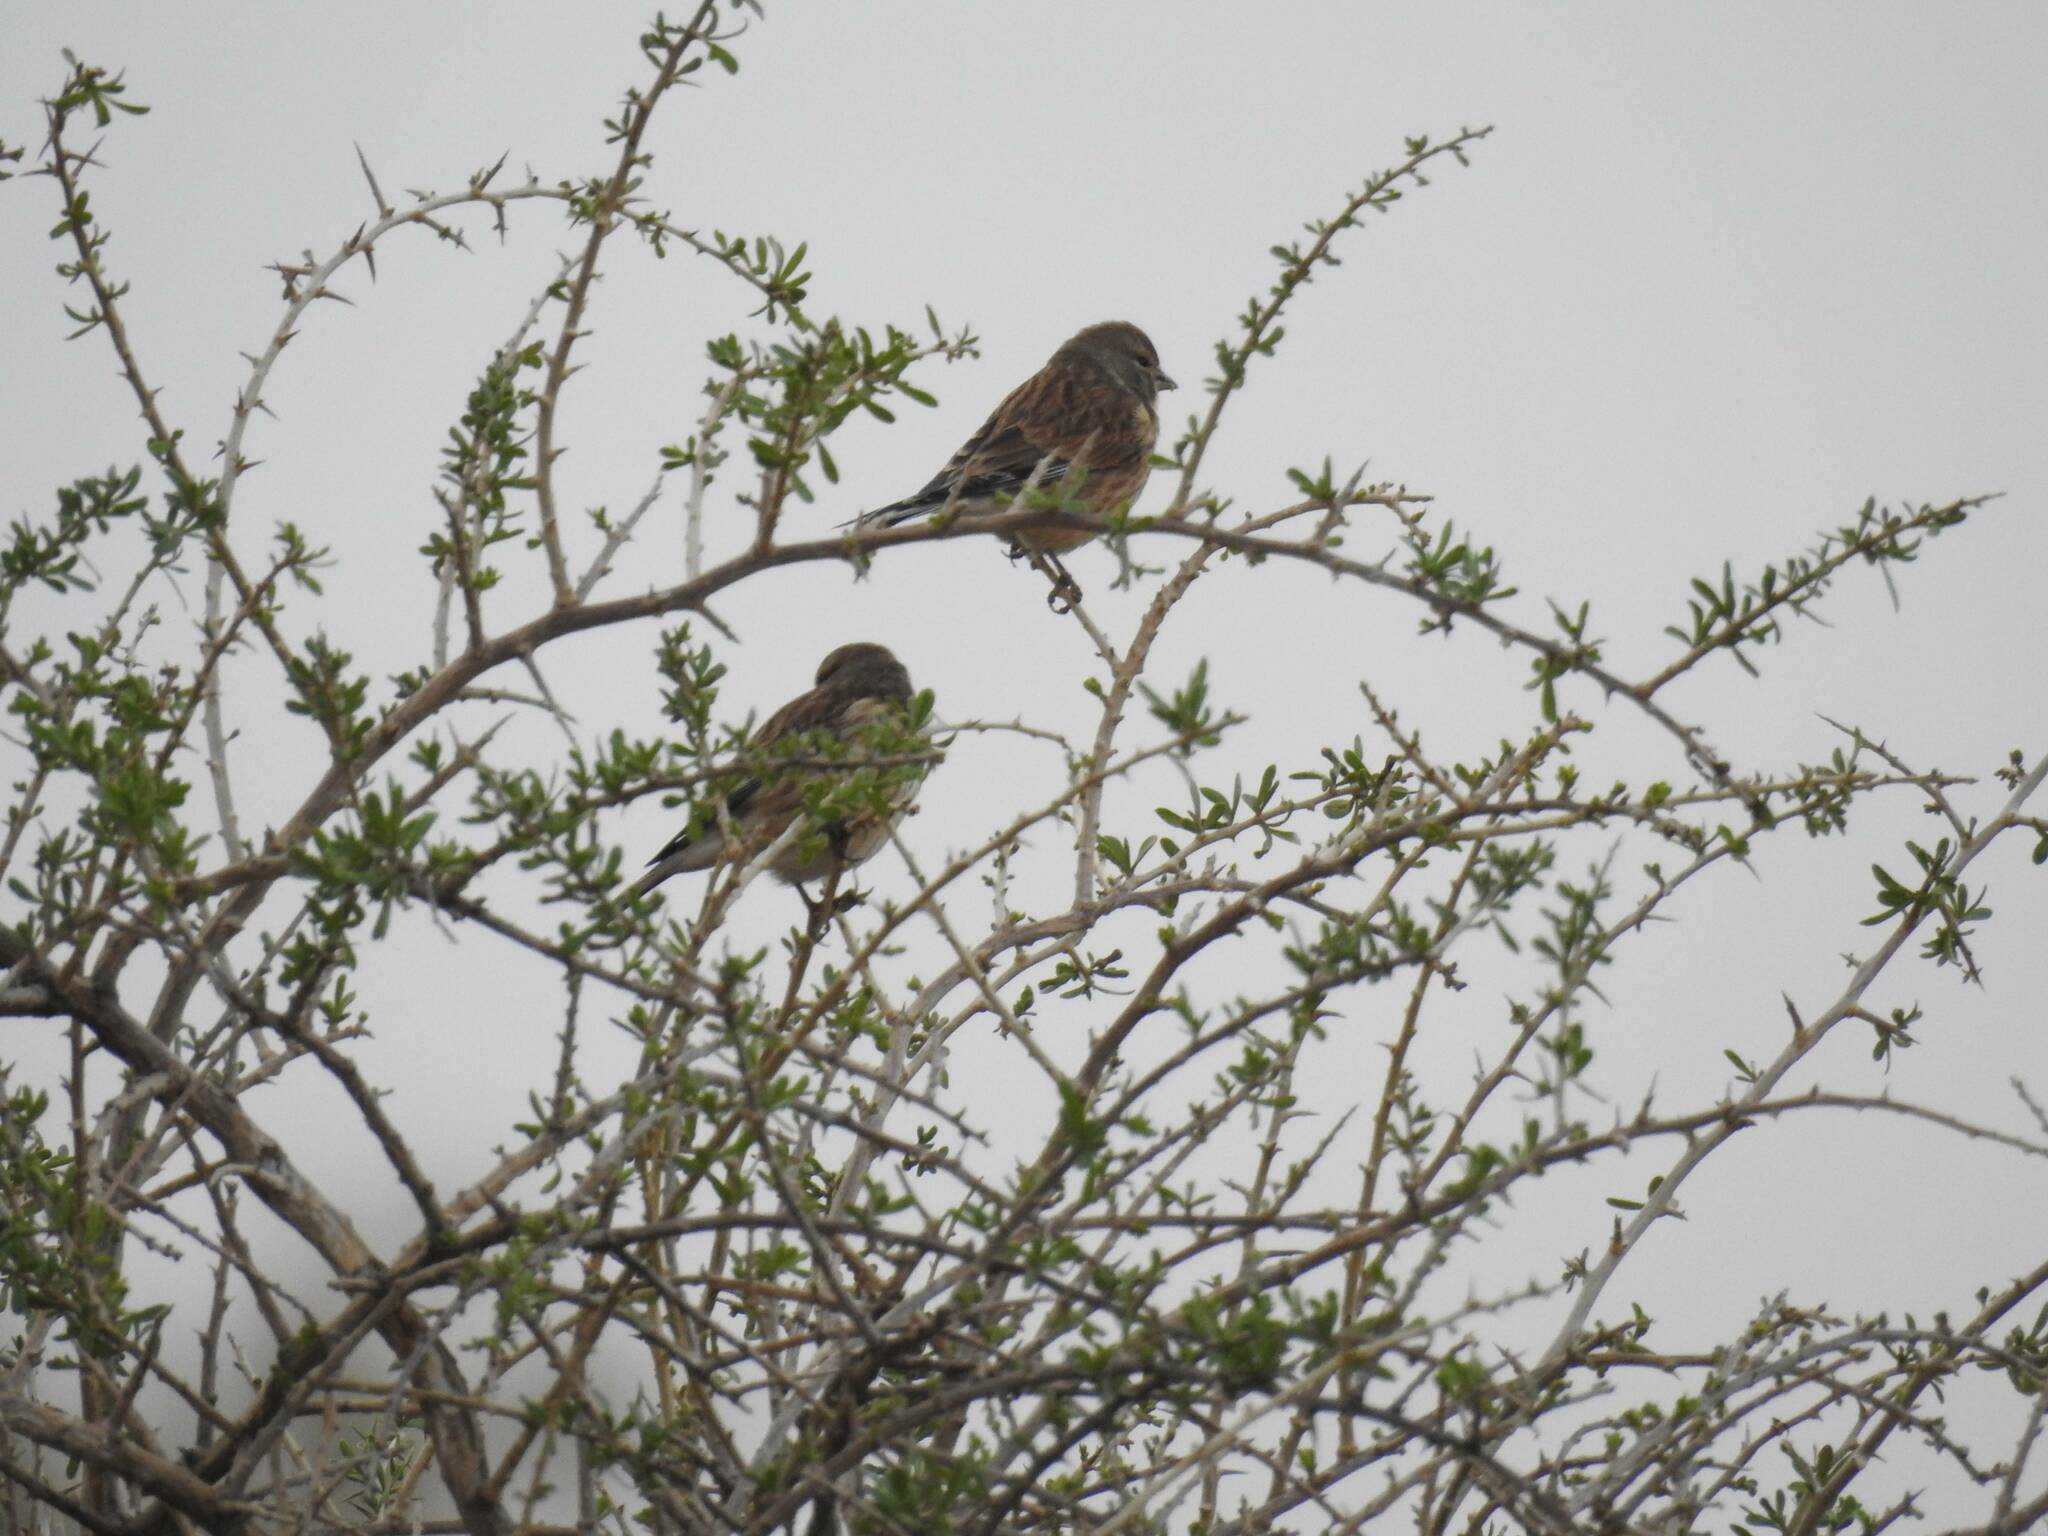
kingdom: Animalia
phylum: Chordata
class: Aves
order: Passeriformes
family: Fringillidae
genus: Linaria
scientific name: Linaria cannabina
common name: Common linnet
